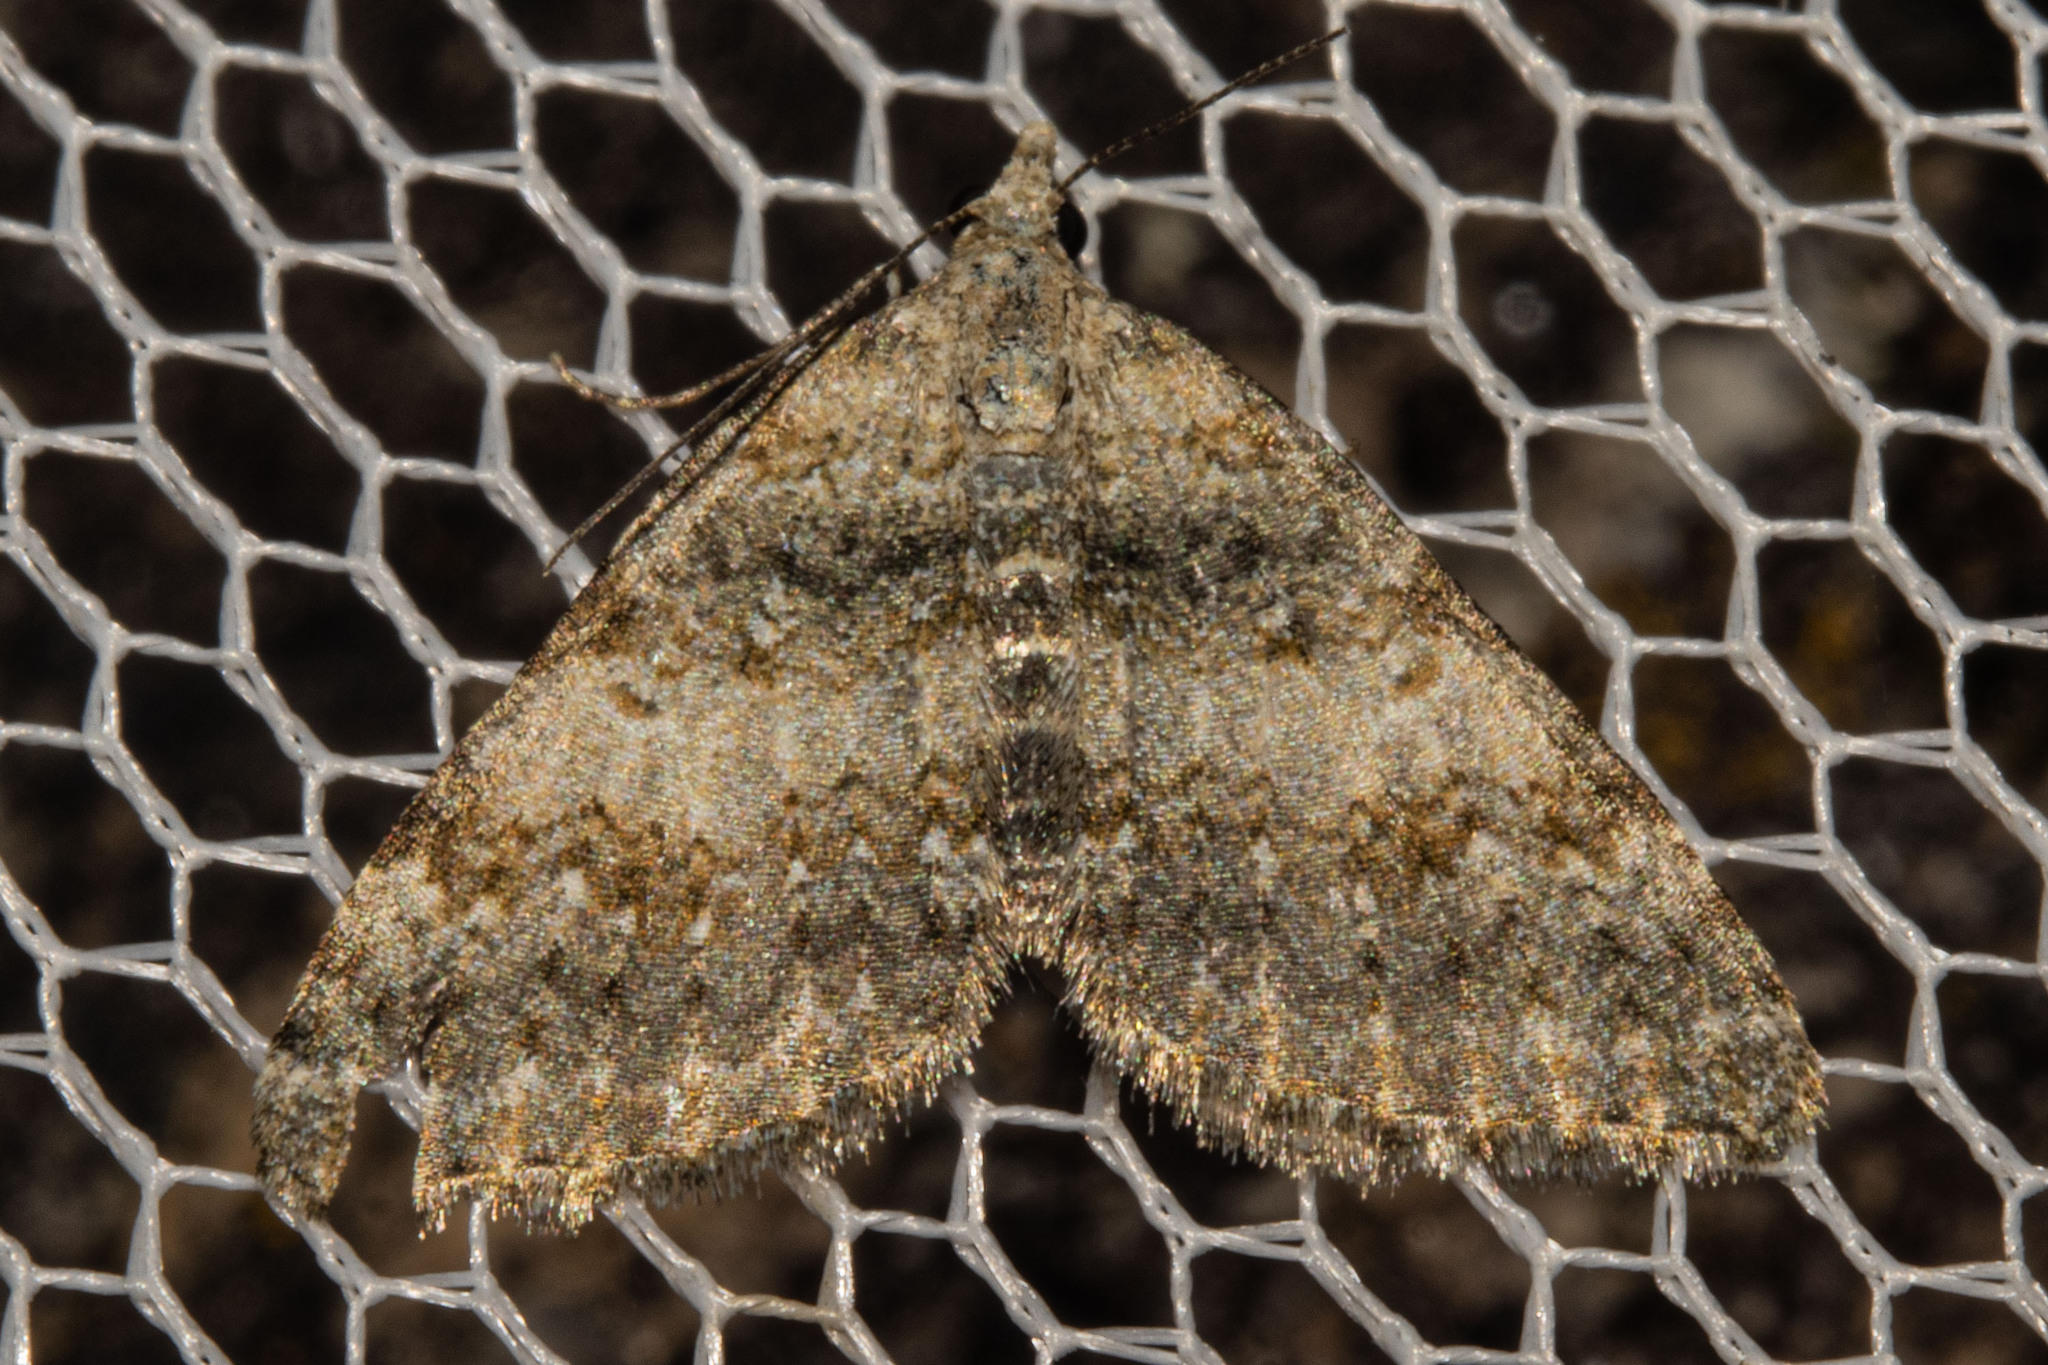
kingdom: Animalia
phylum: Arthropoda
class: Insecta
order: Lepidoptera
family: Geometridae
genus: Helastia
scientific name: Helastia plumbea
